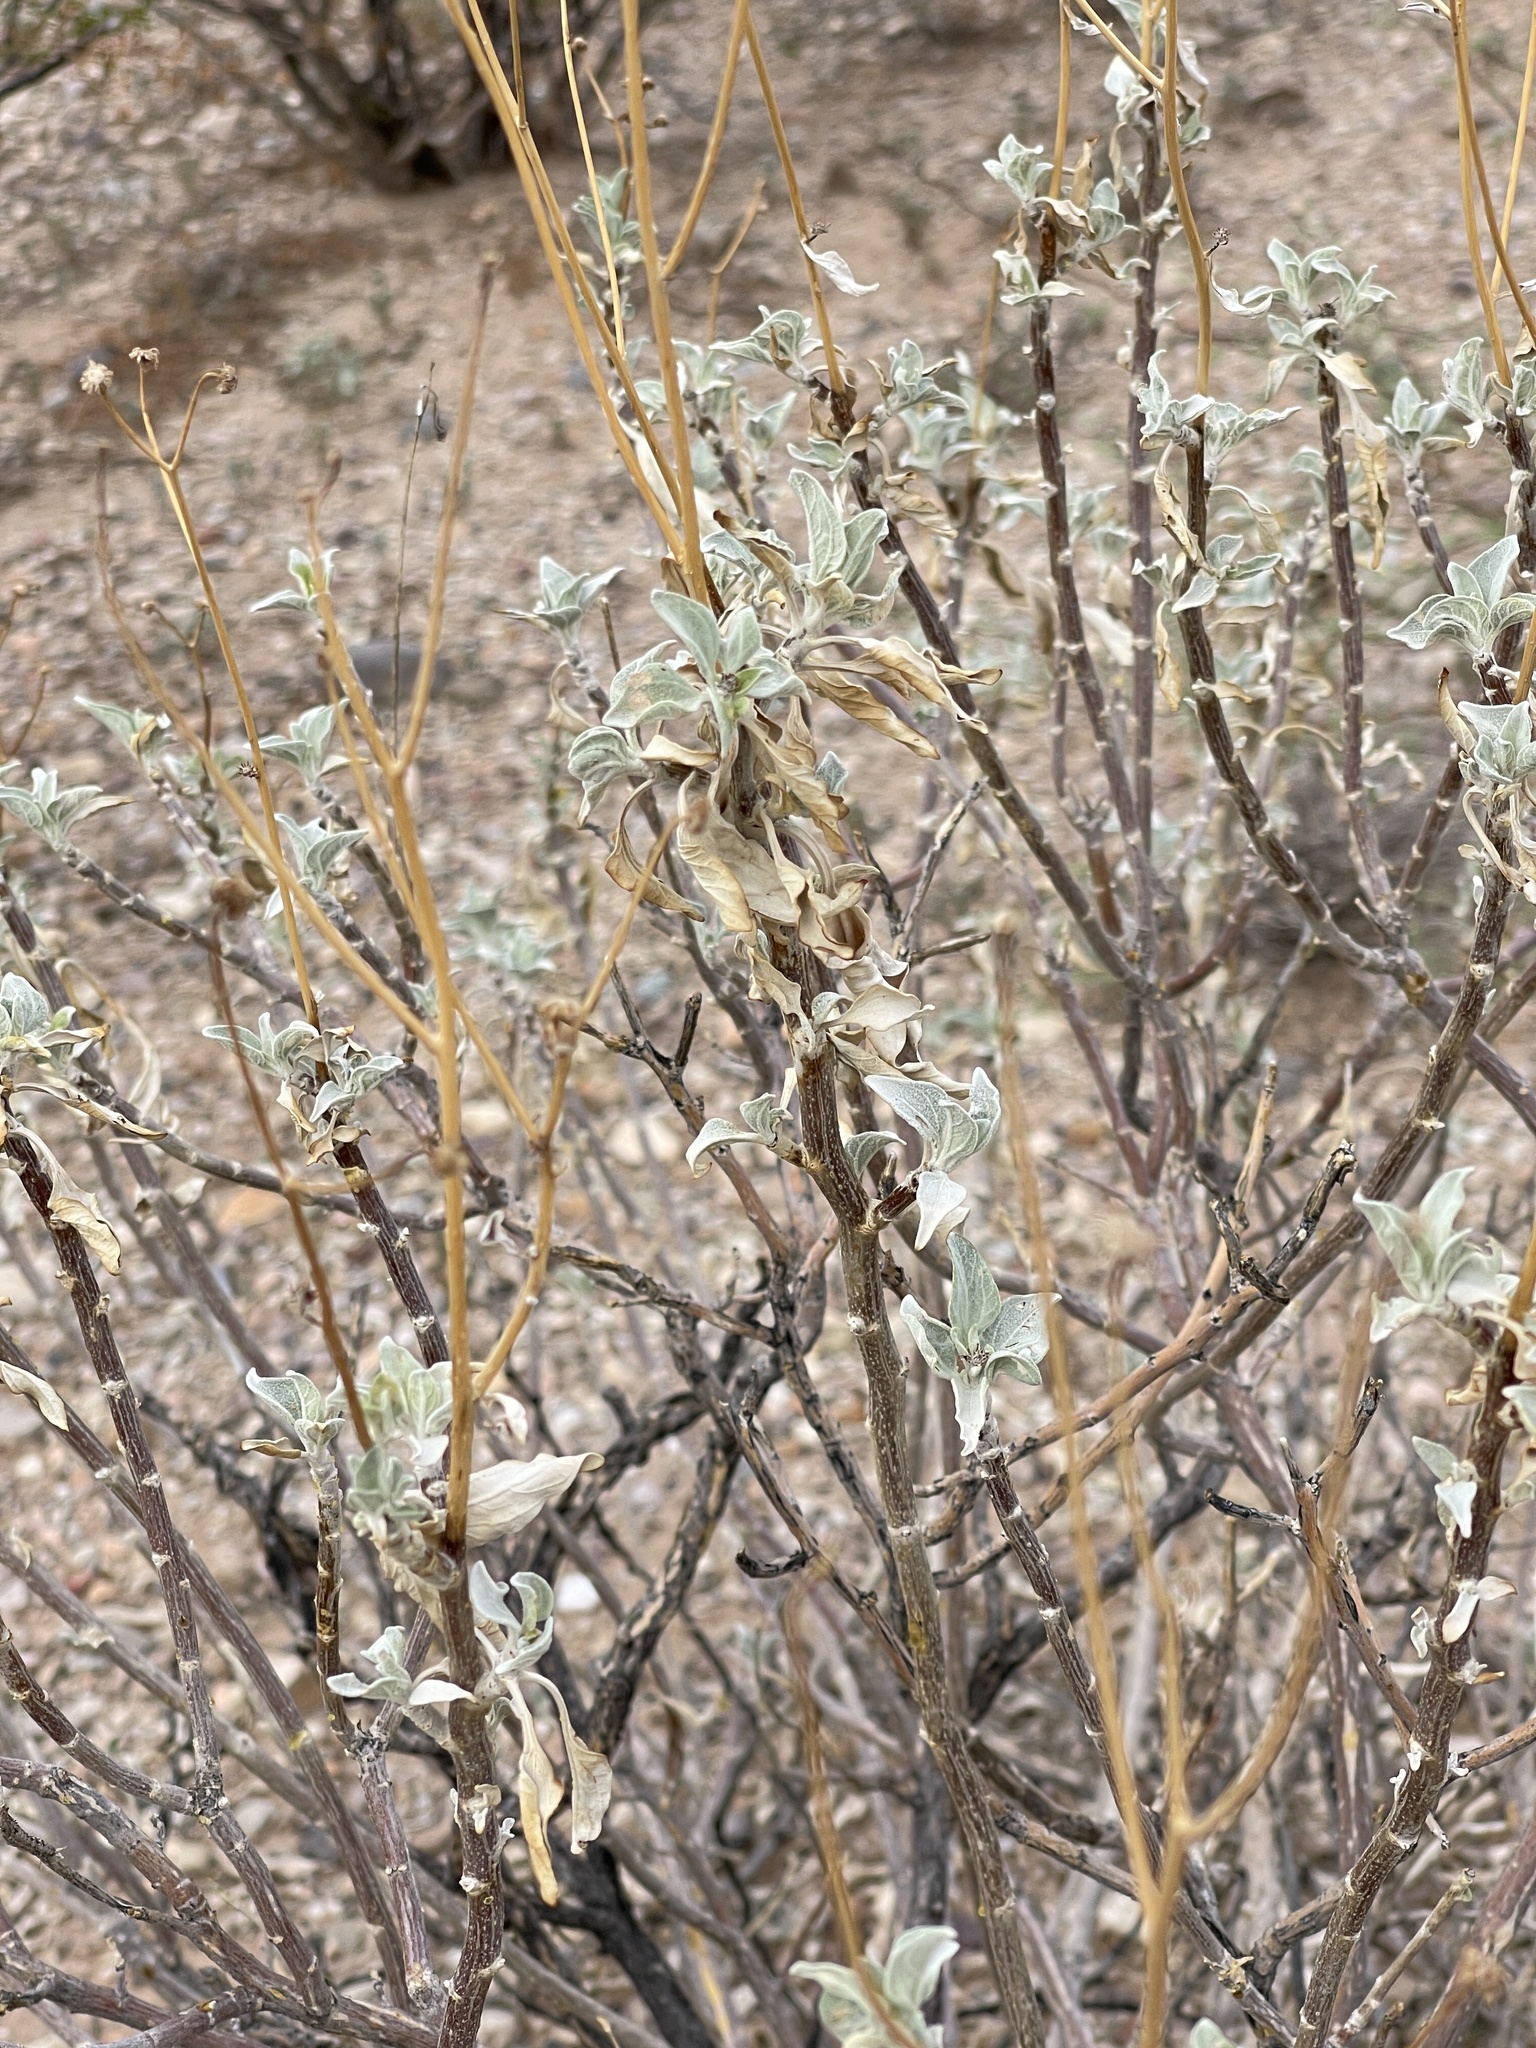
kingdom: Plantae
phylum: Tracheophyta
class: Magnoliopsida
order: Asterales
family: Asteraceae
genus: Encelia
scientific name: Encelia farinosa
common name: Brittlebush
